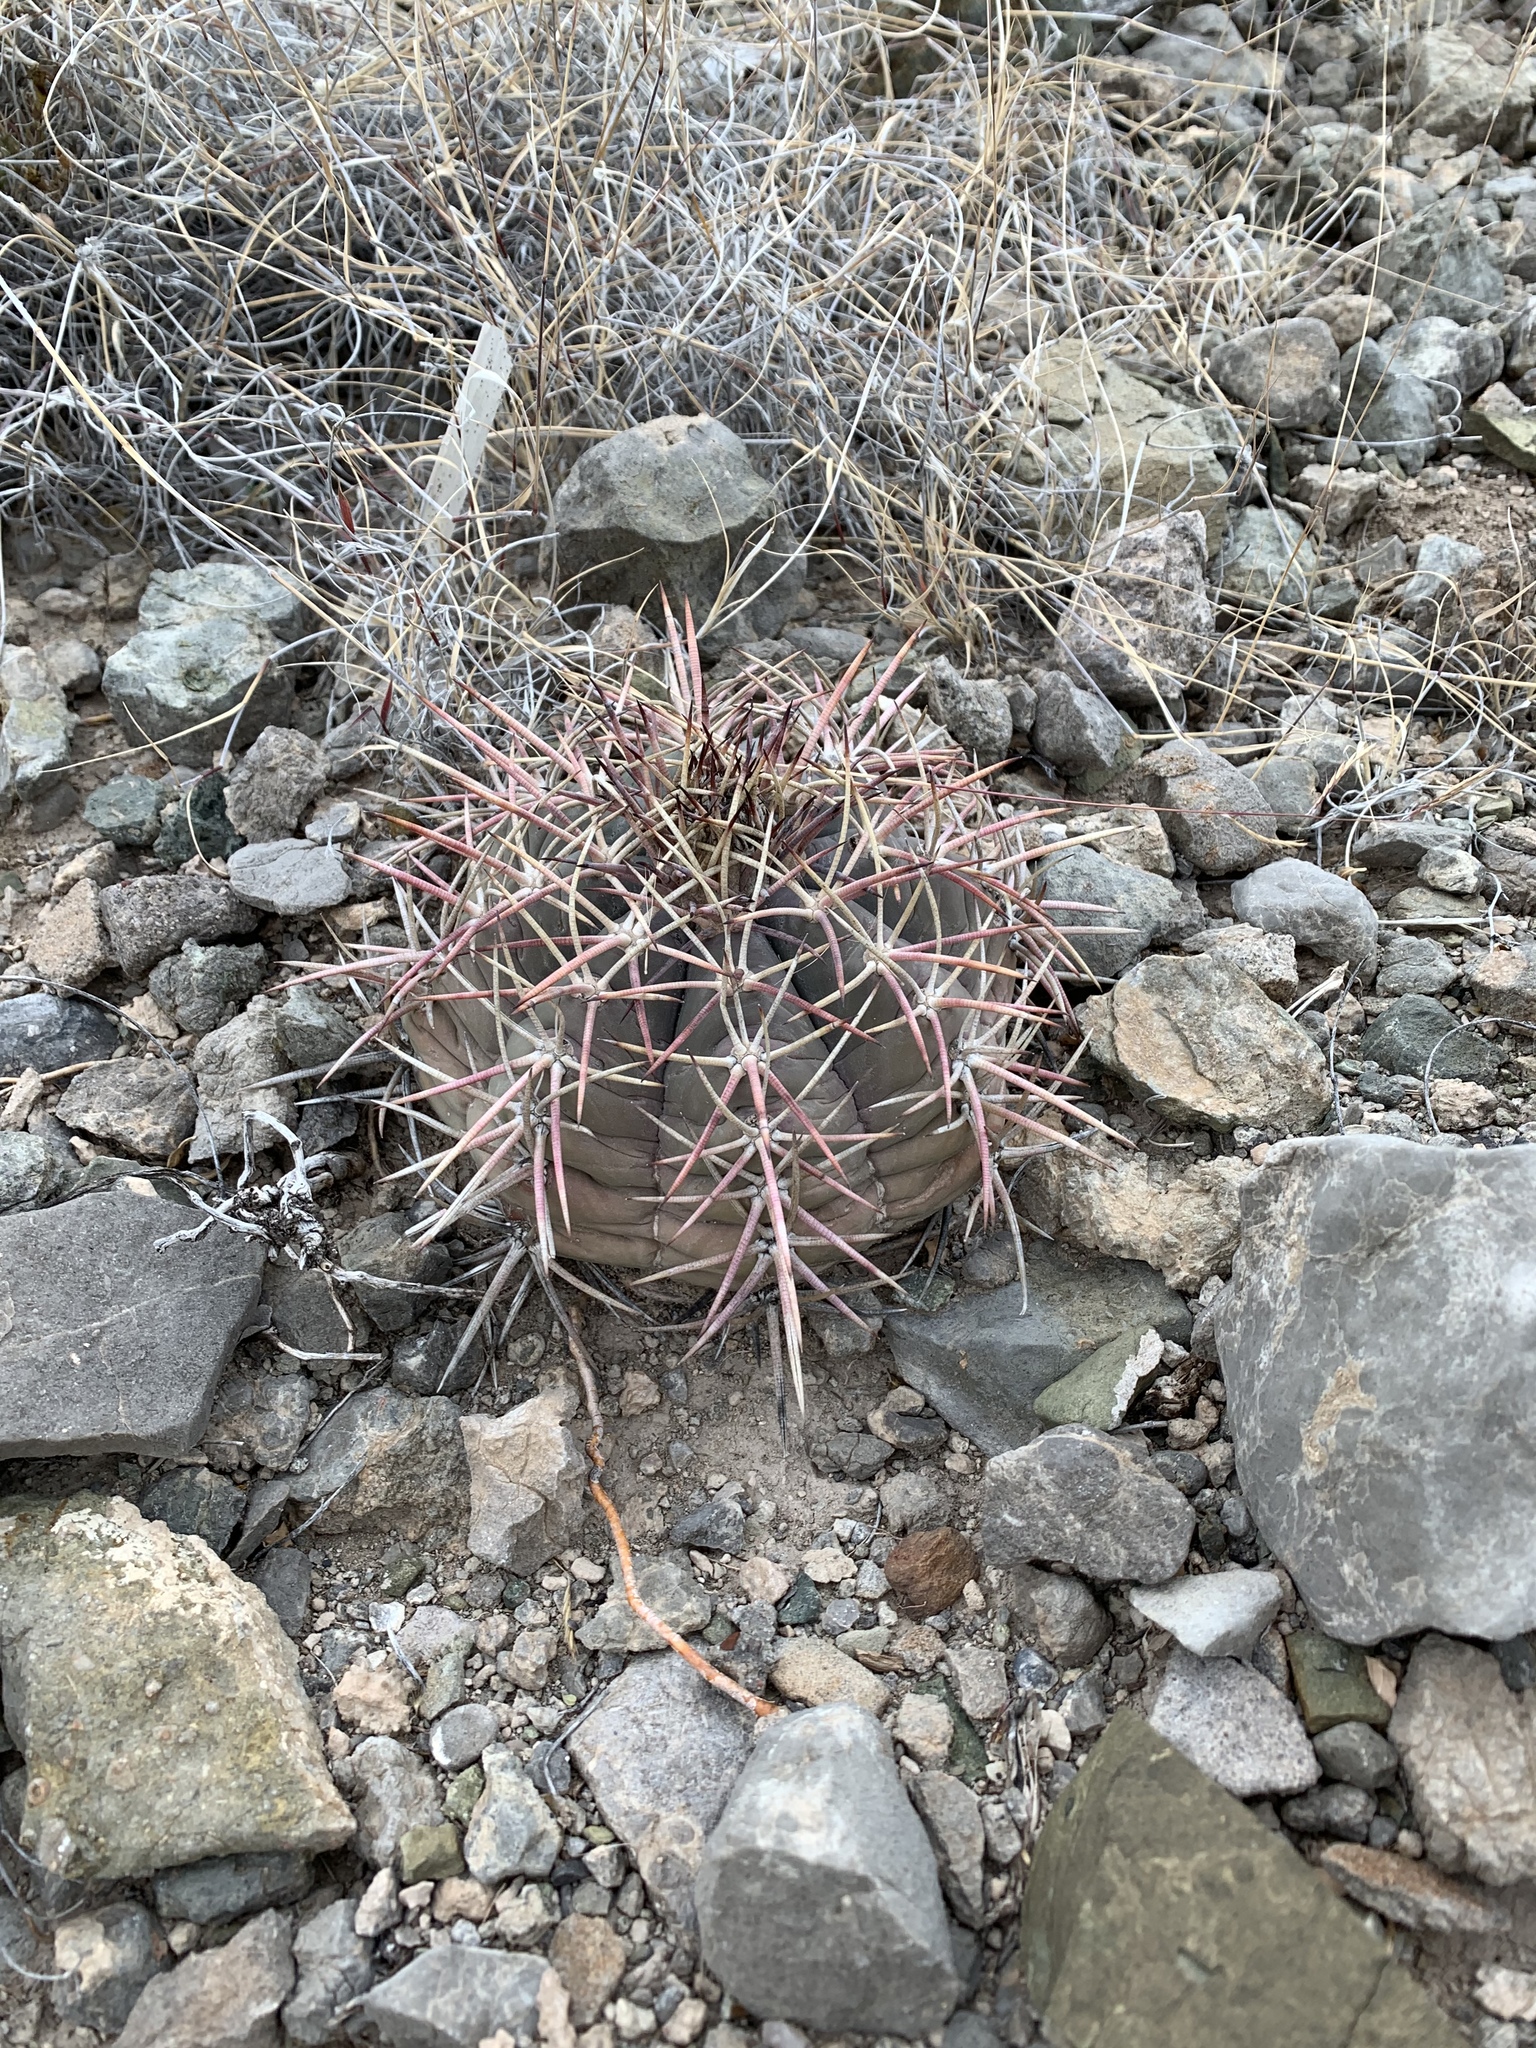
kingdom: Plantae
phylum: Tracheophyta
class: Magnoliopsida
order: Caryophyllales
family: Cactaceae
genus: Echinocactus
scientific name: Echinocactus horizonthalonius
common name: Devilshead
